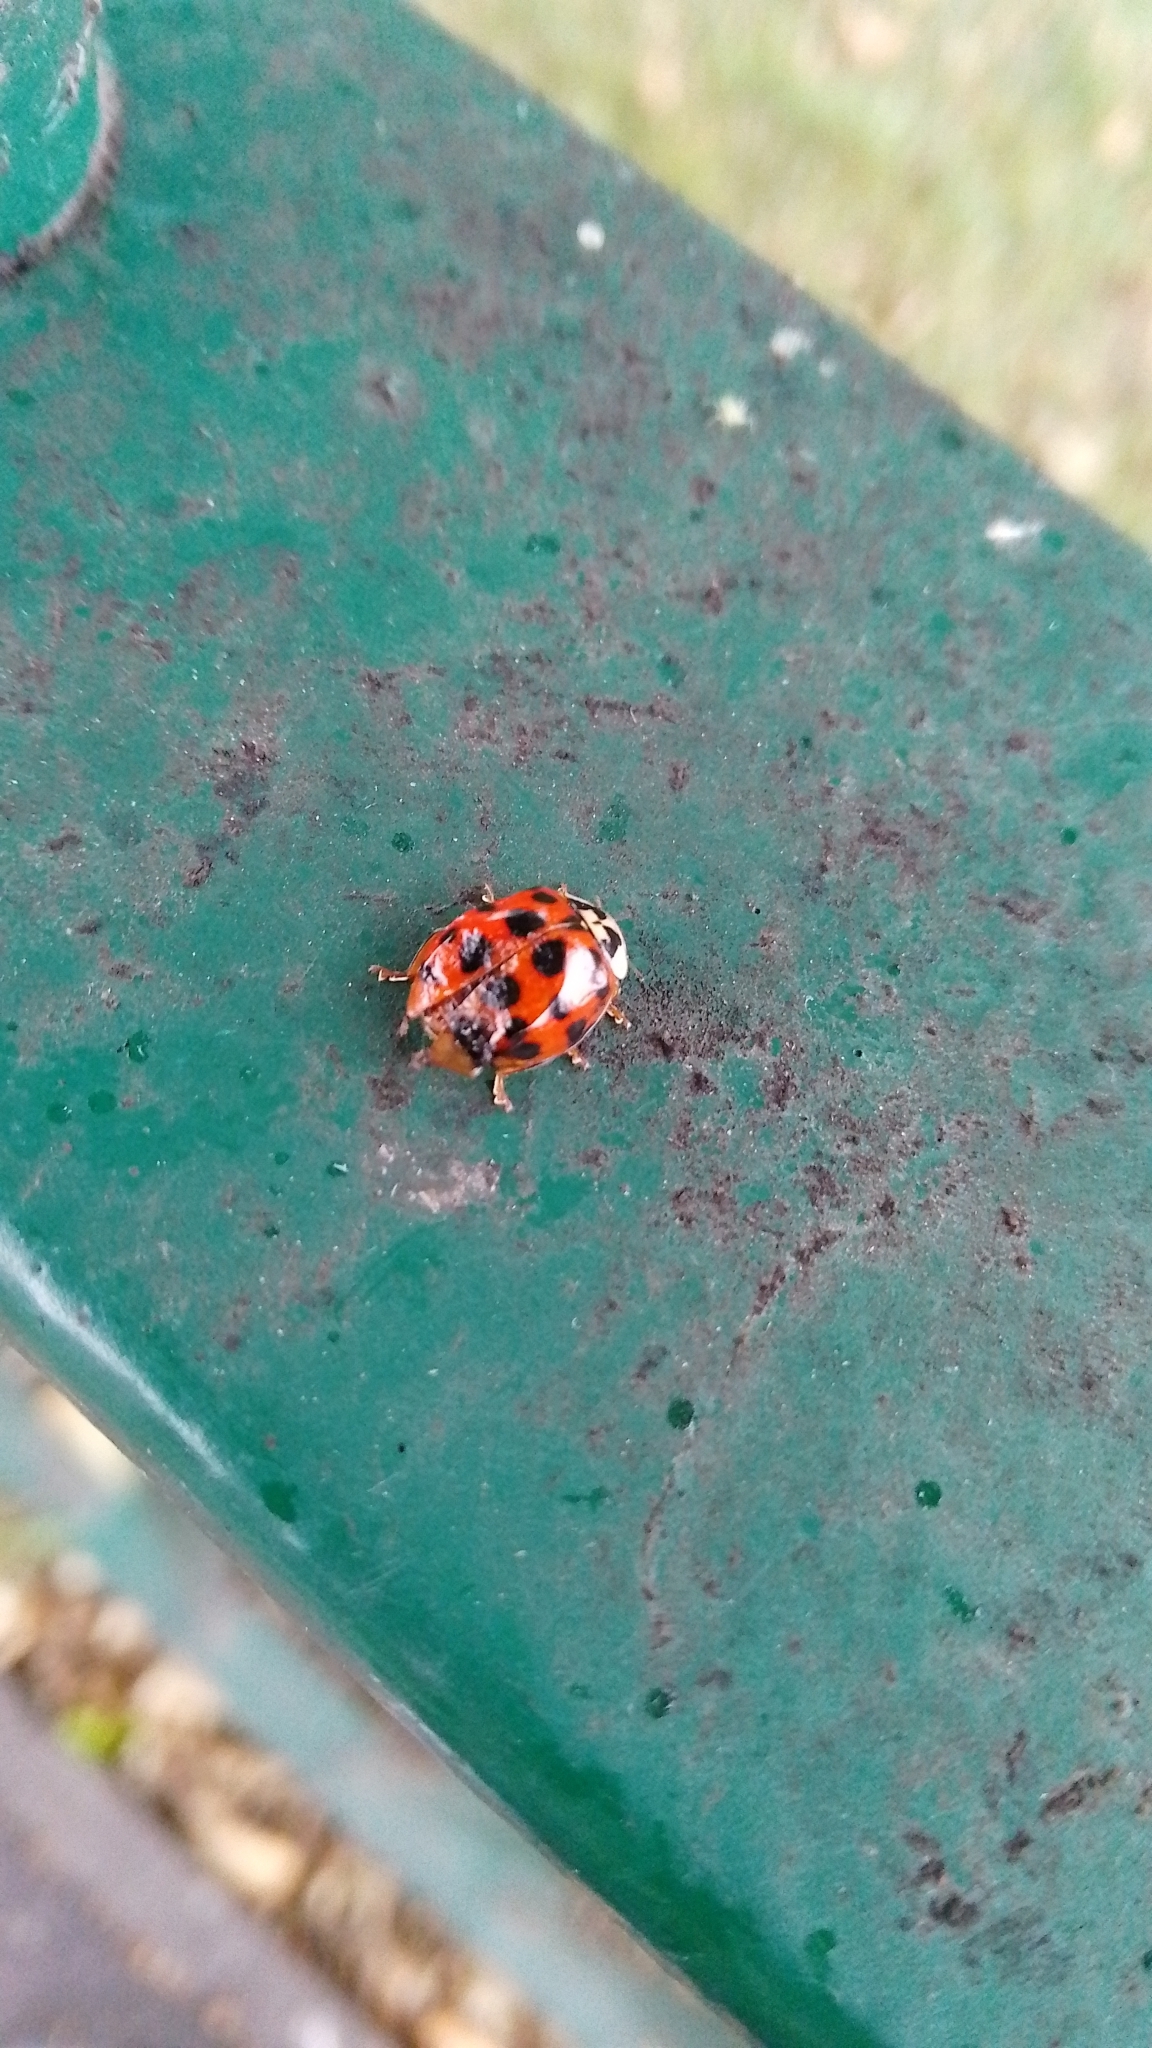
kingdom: Animalia
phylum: Arthropoda
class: Insecta
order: Coleoptera
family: Coccinellidae
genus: Harmonia
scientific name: Harmonia axyridis
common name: Harlequin ladybird
